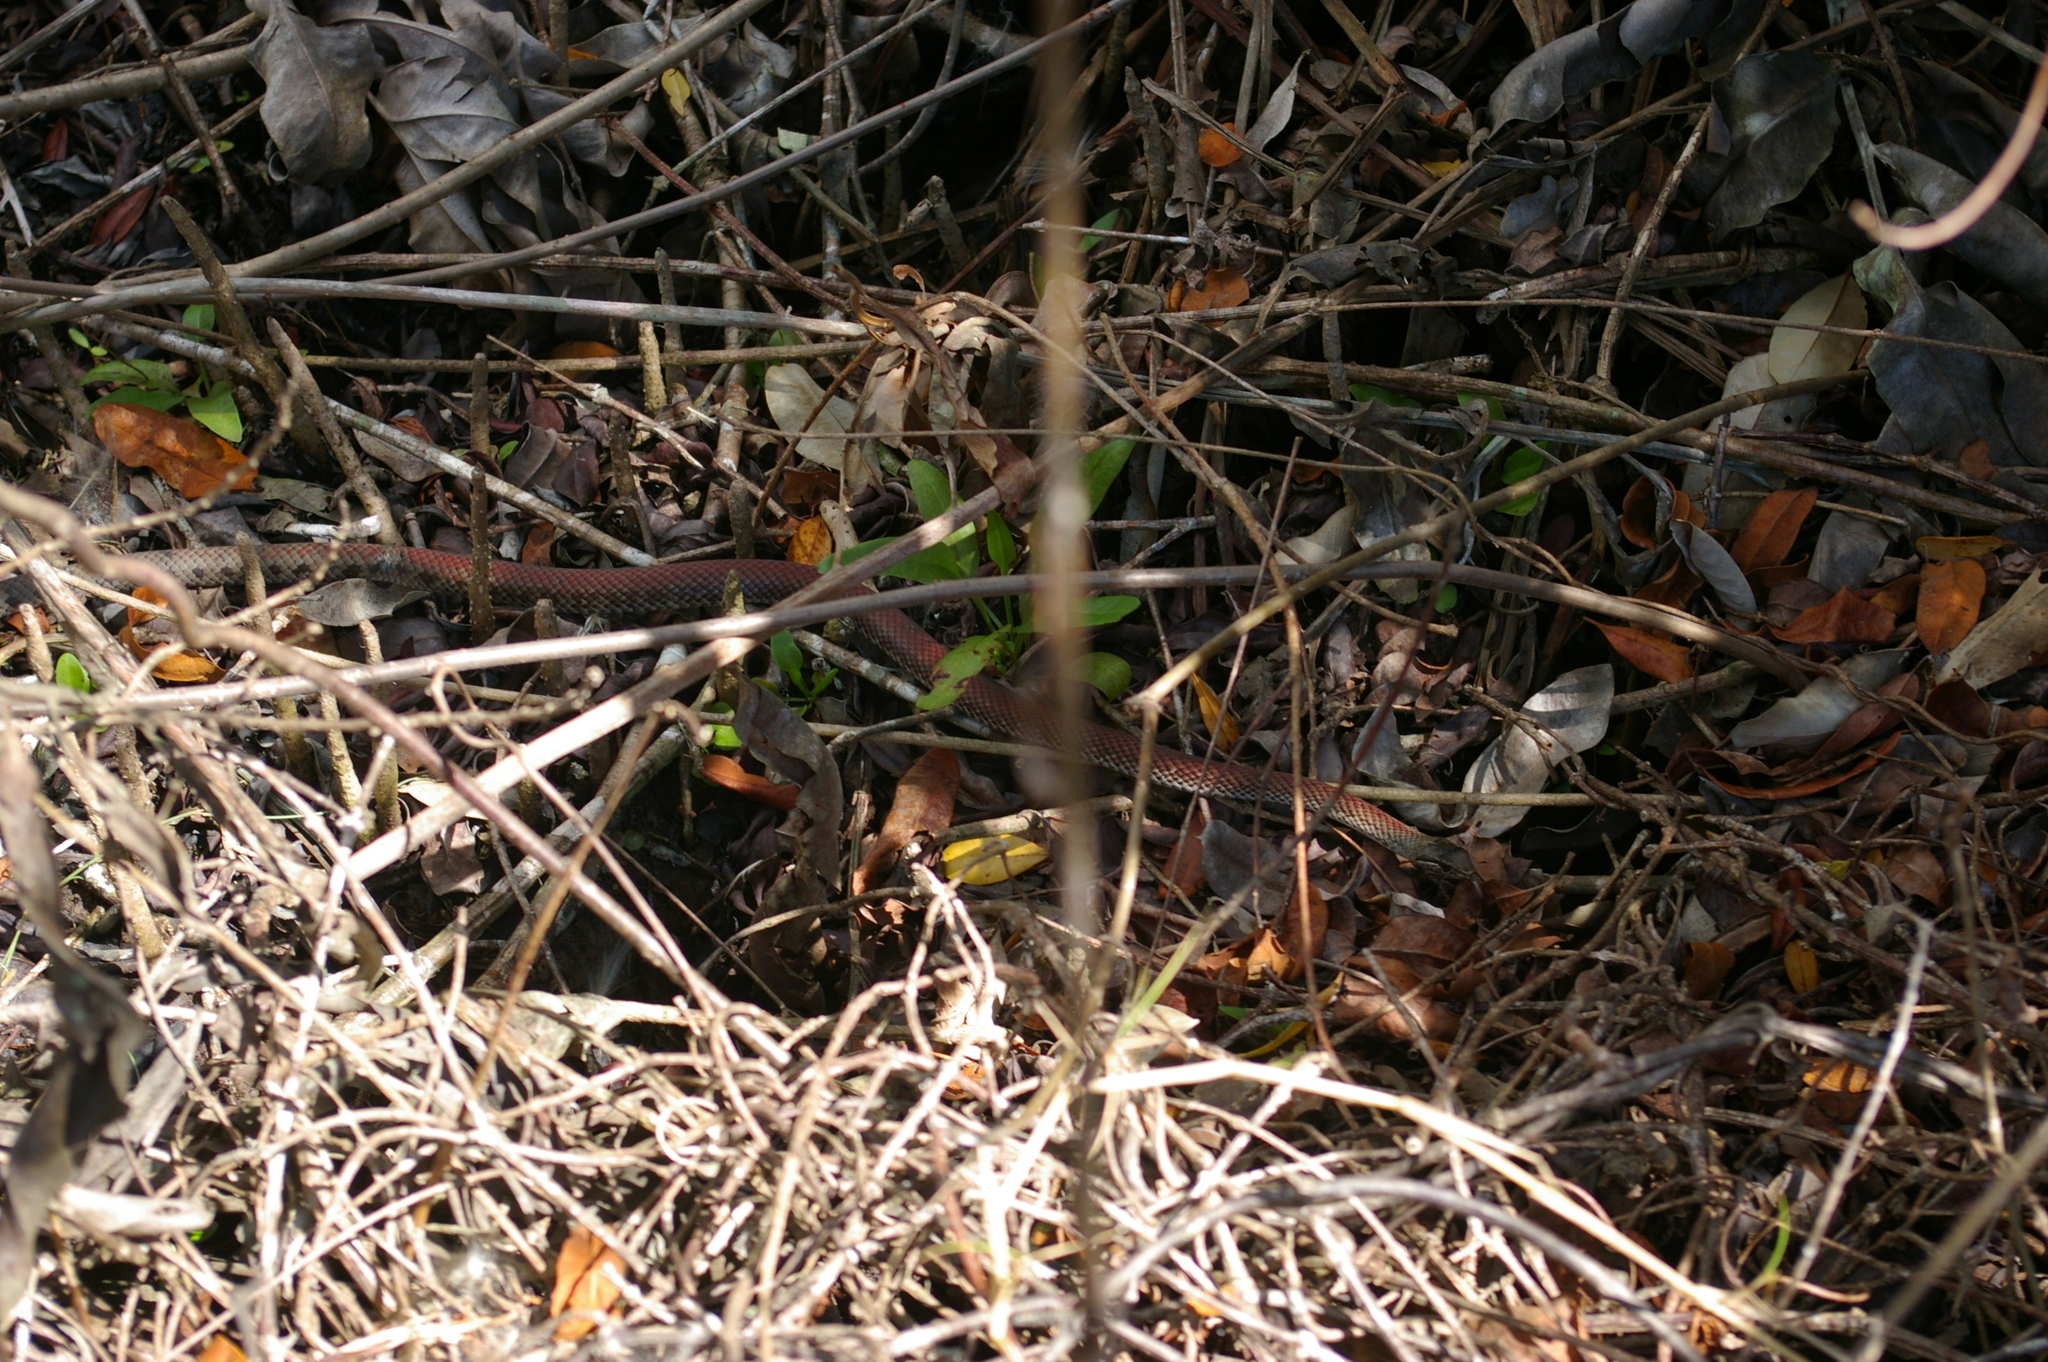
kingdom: Animalia
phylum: Chordata
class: Squamata
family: Colubridae
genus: Cubophis
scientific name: Cubophis caymanus
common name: Black snake
